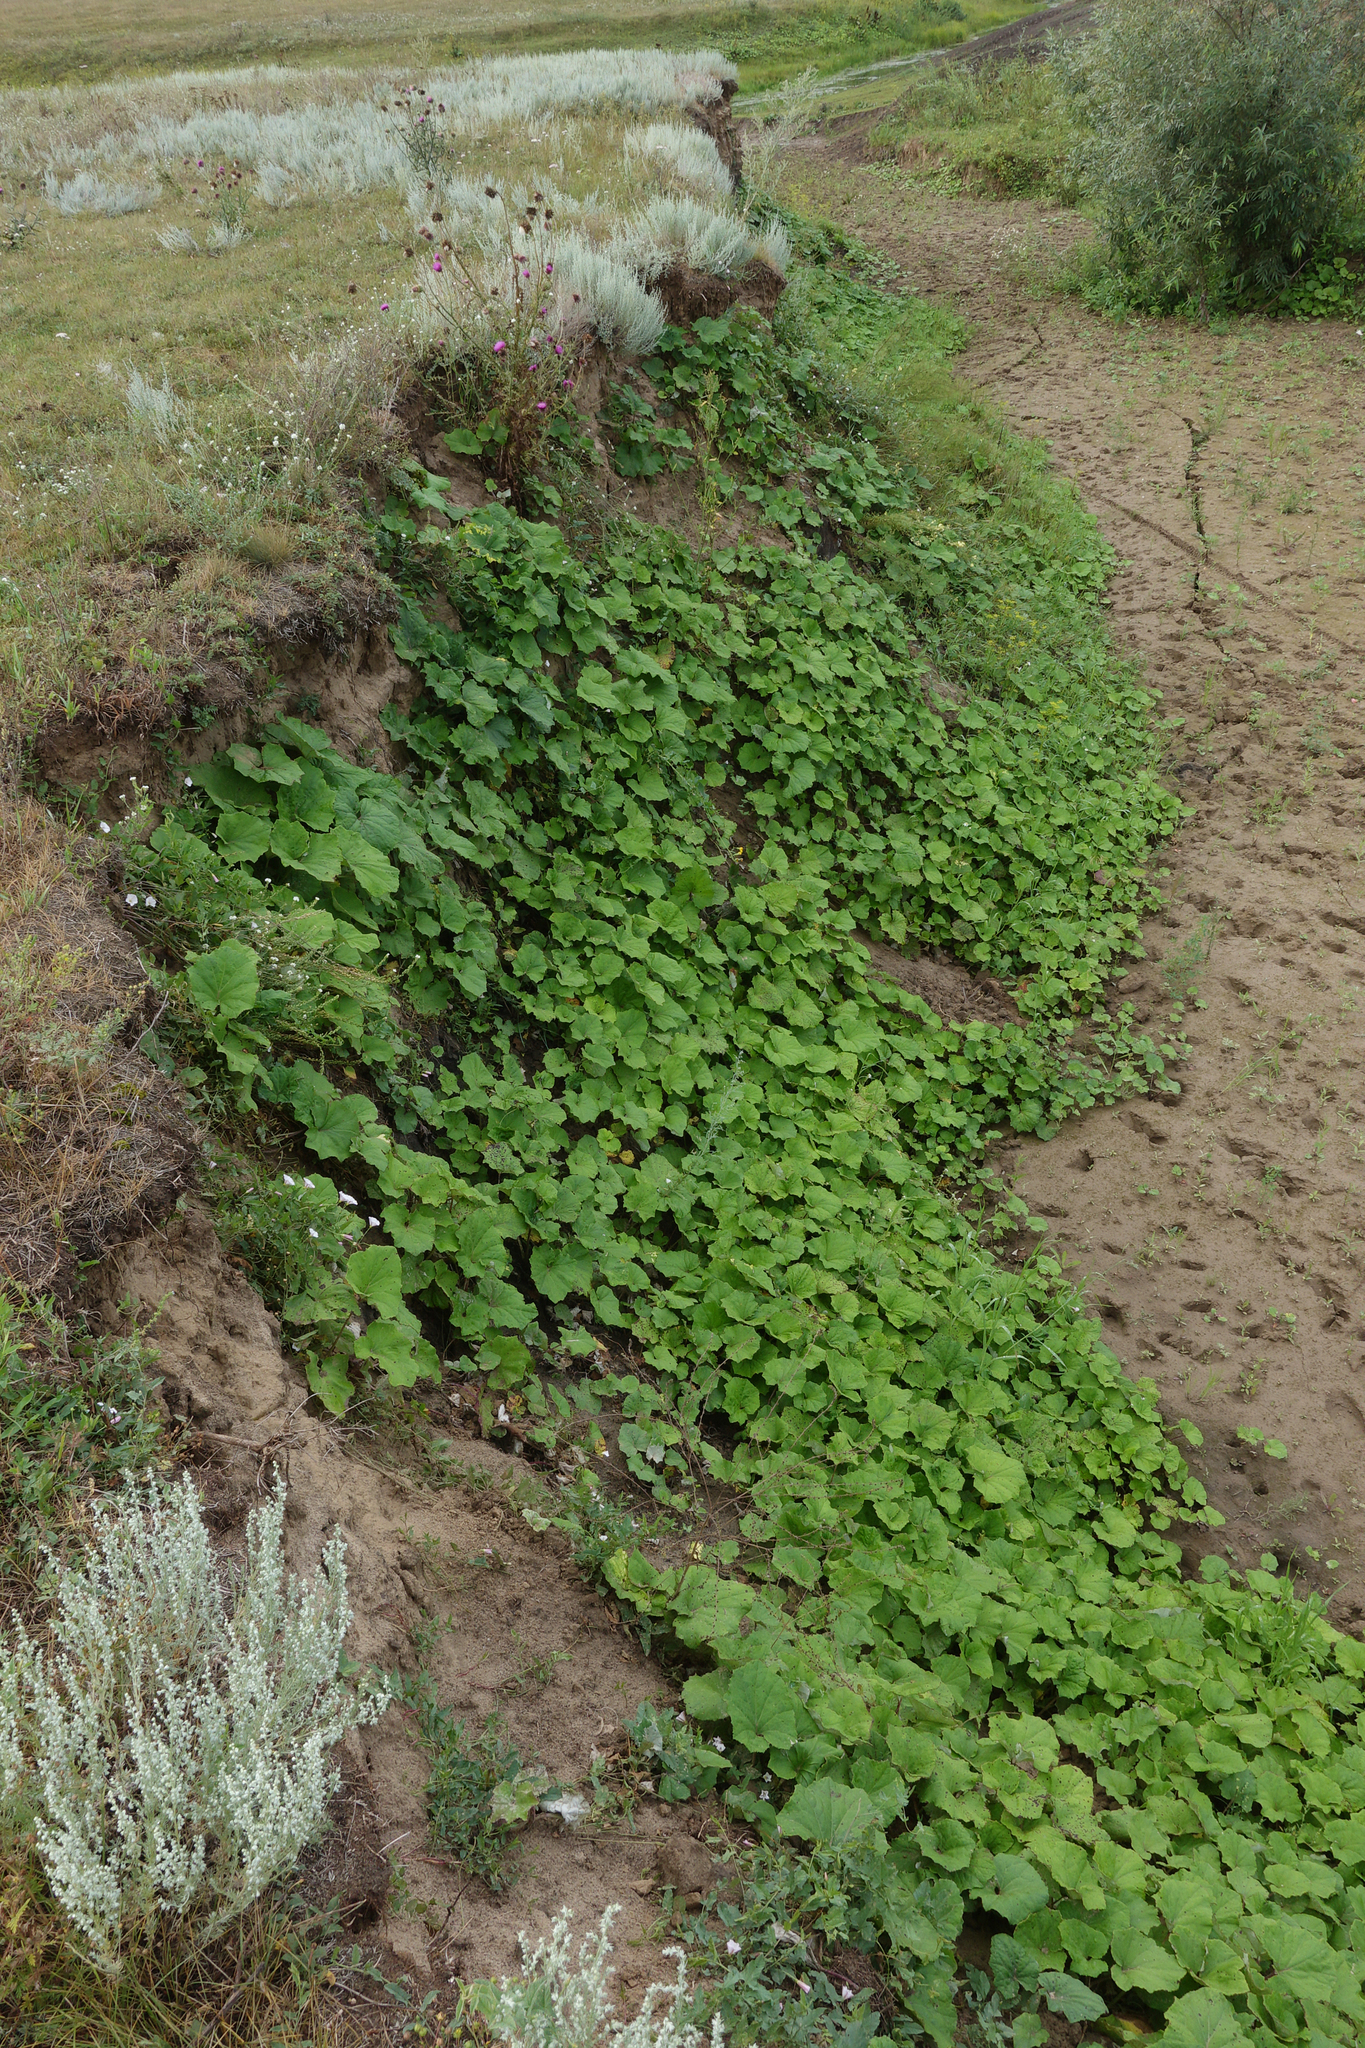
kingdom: Plantae
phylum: Tracheophyta
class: Magnoliopsida
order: Asterales
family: Asteraceae
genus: Tussilago
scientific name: Tussilago farfara
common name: Coltsfoot
